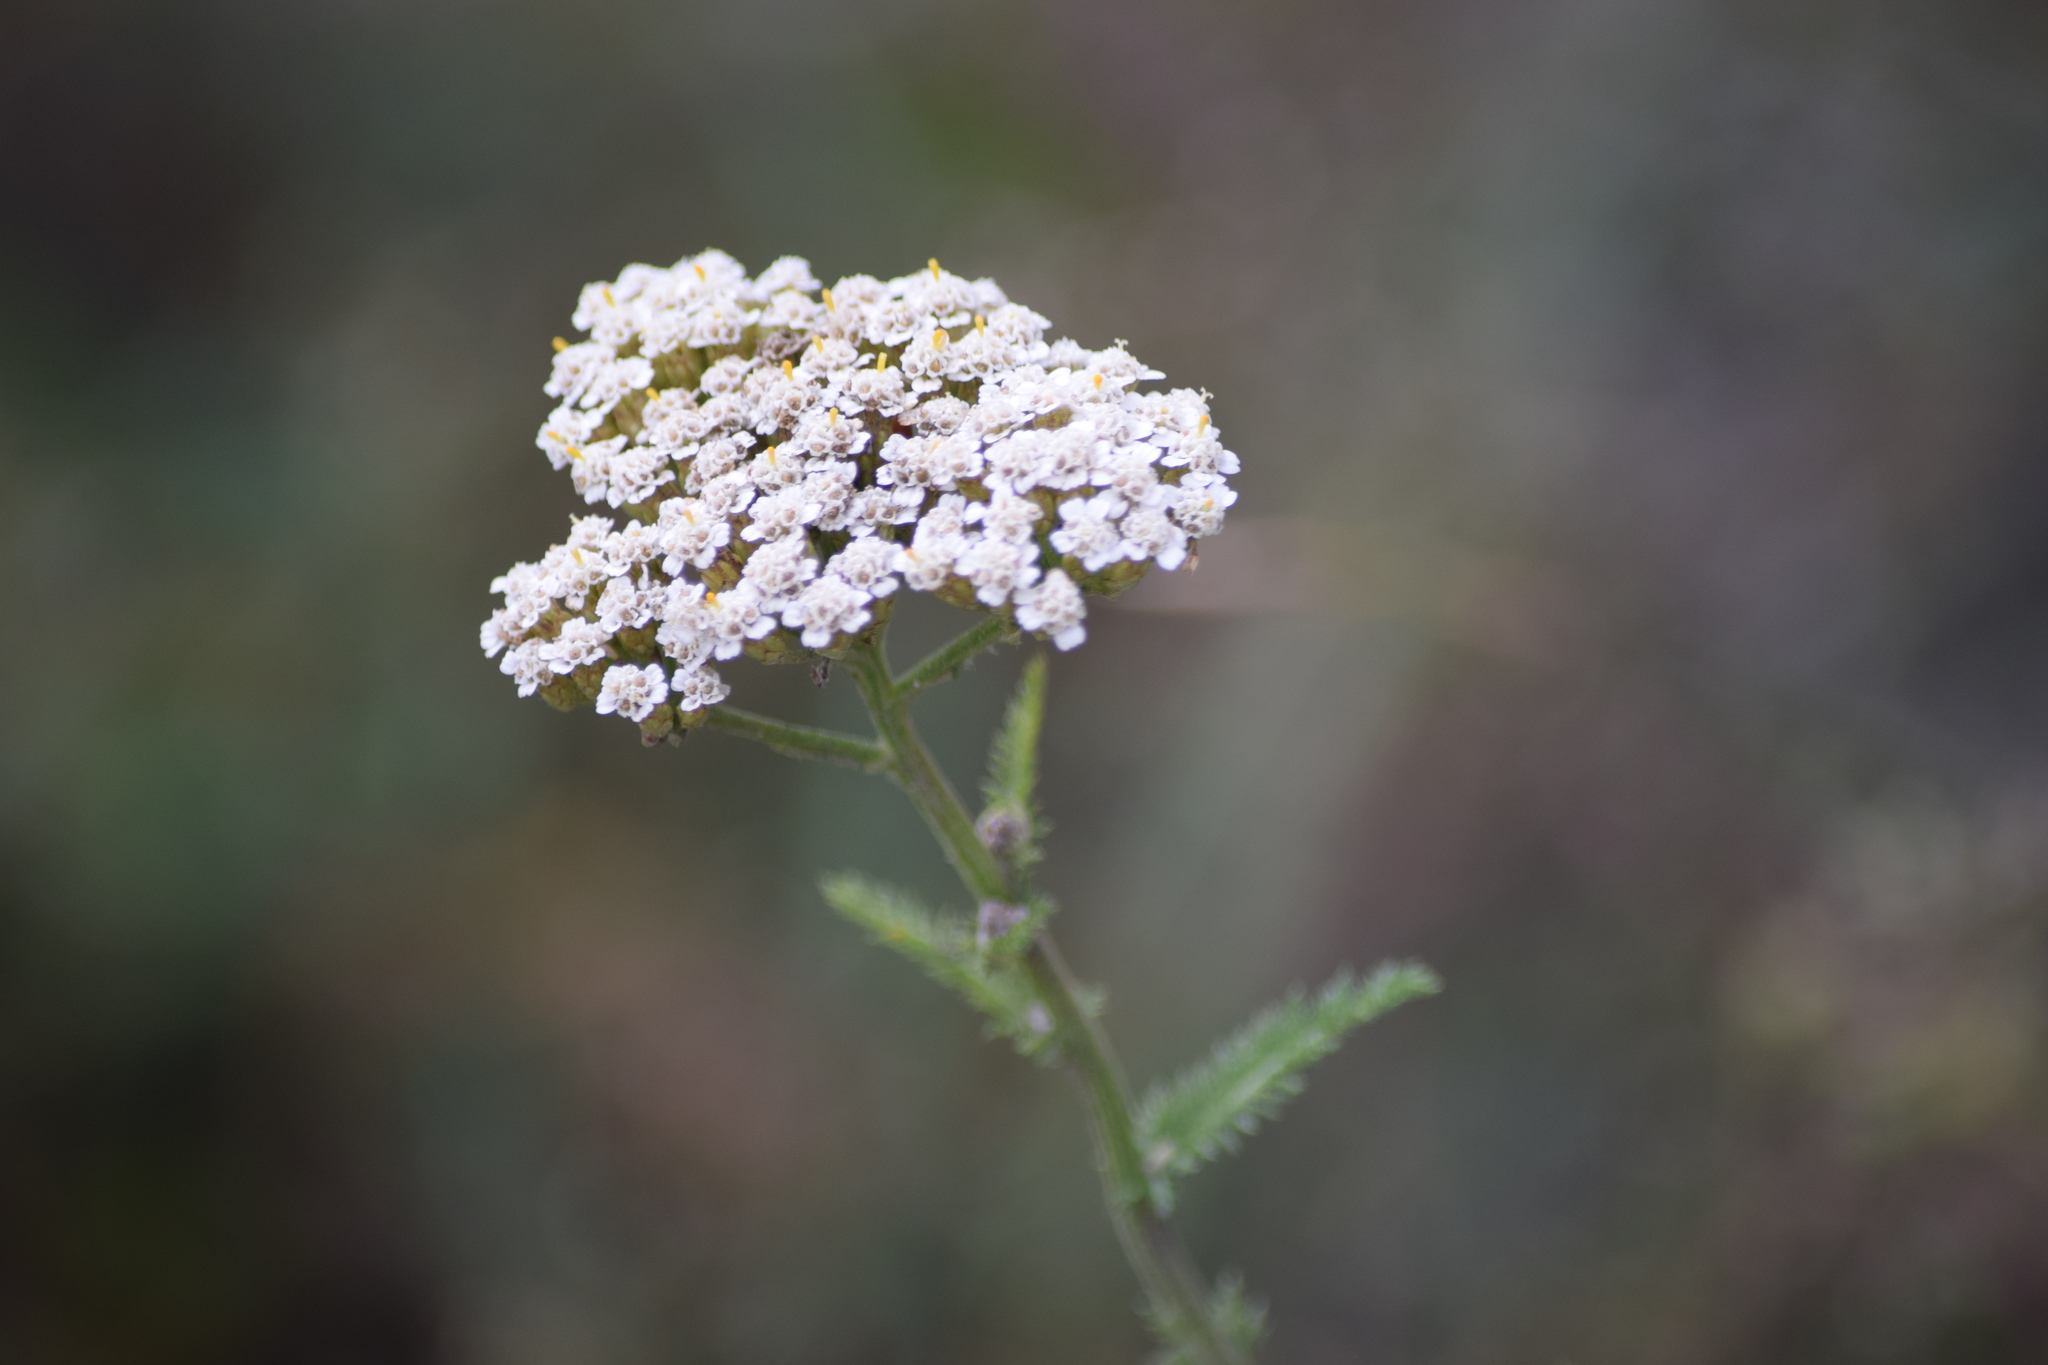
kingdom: Plantae
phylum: Tracheophyta
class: Magnoliopsida
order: Asterales
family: Asteraceae
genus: Achillea
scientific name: Achillea millefolium
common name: Yarrow
